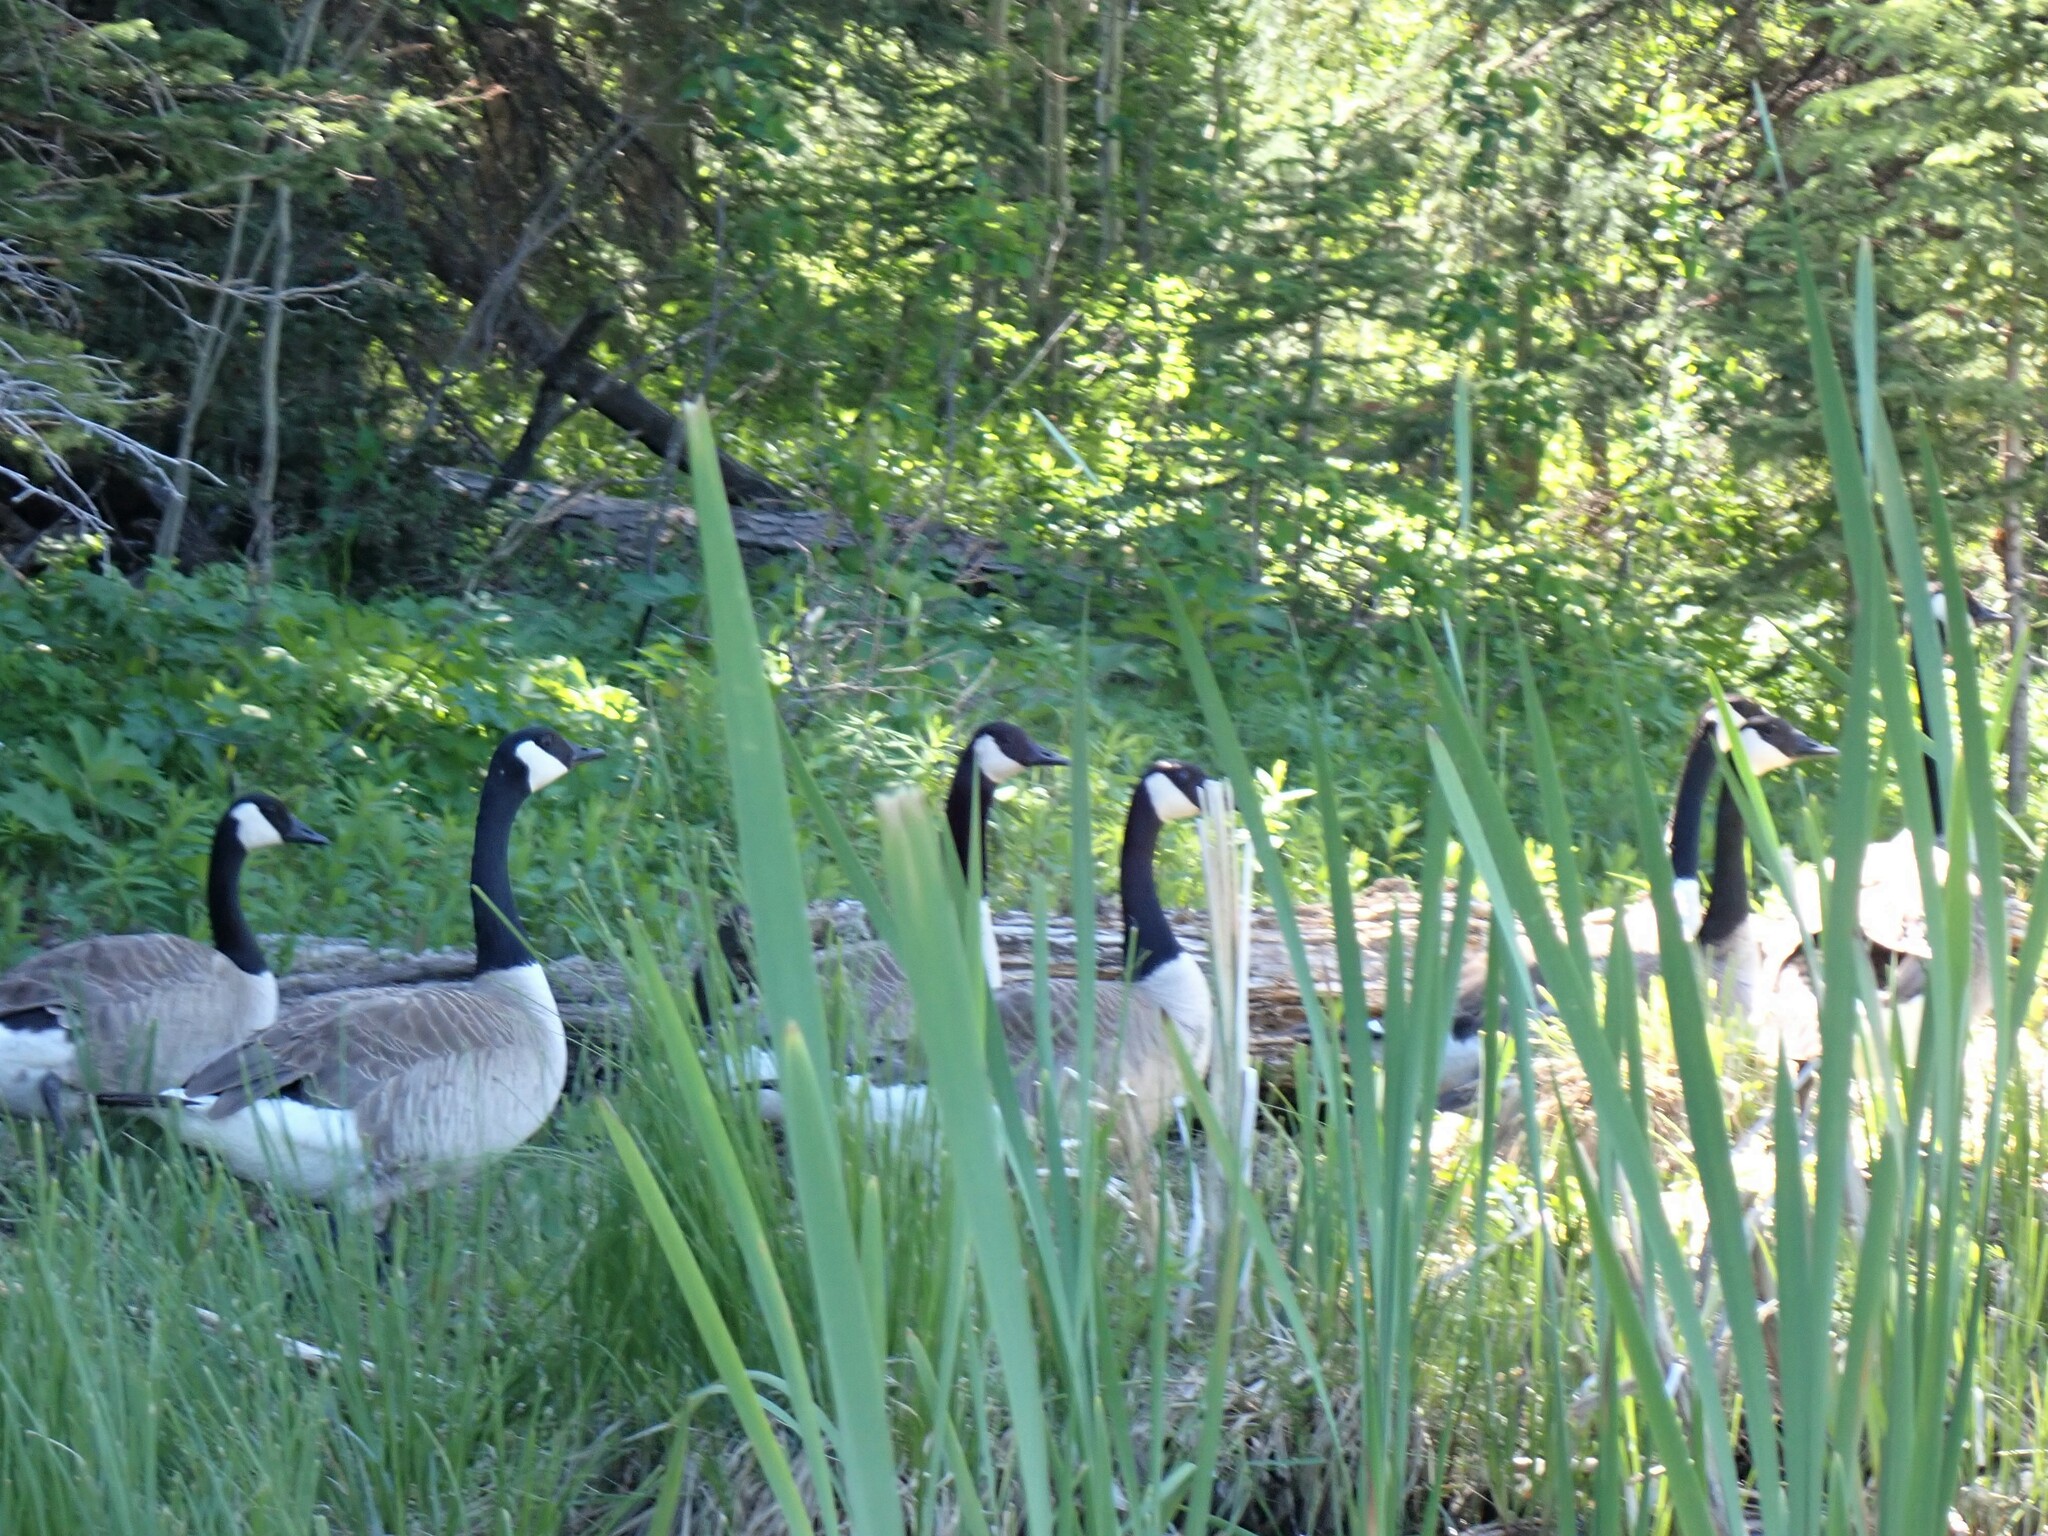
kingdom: Animalia
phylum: Chordata
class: Aves
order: Anseriformes
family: Anatidae
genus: Branta
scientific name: Branta canadensis
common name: Canada goose
